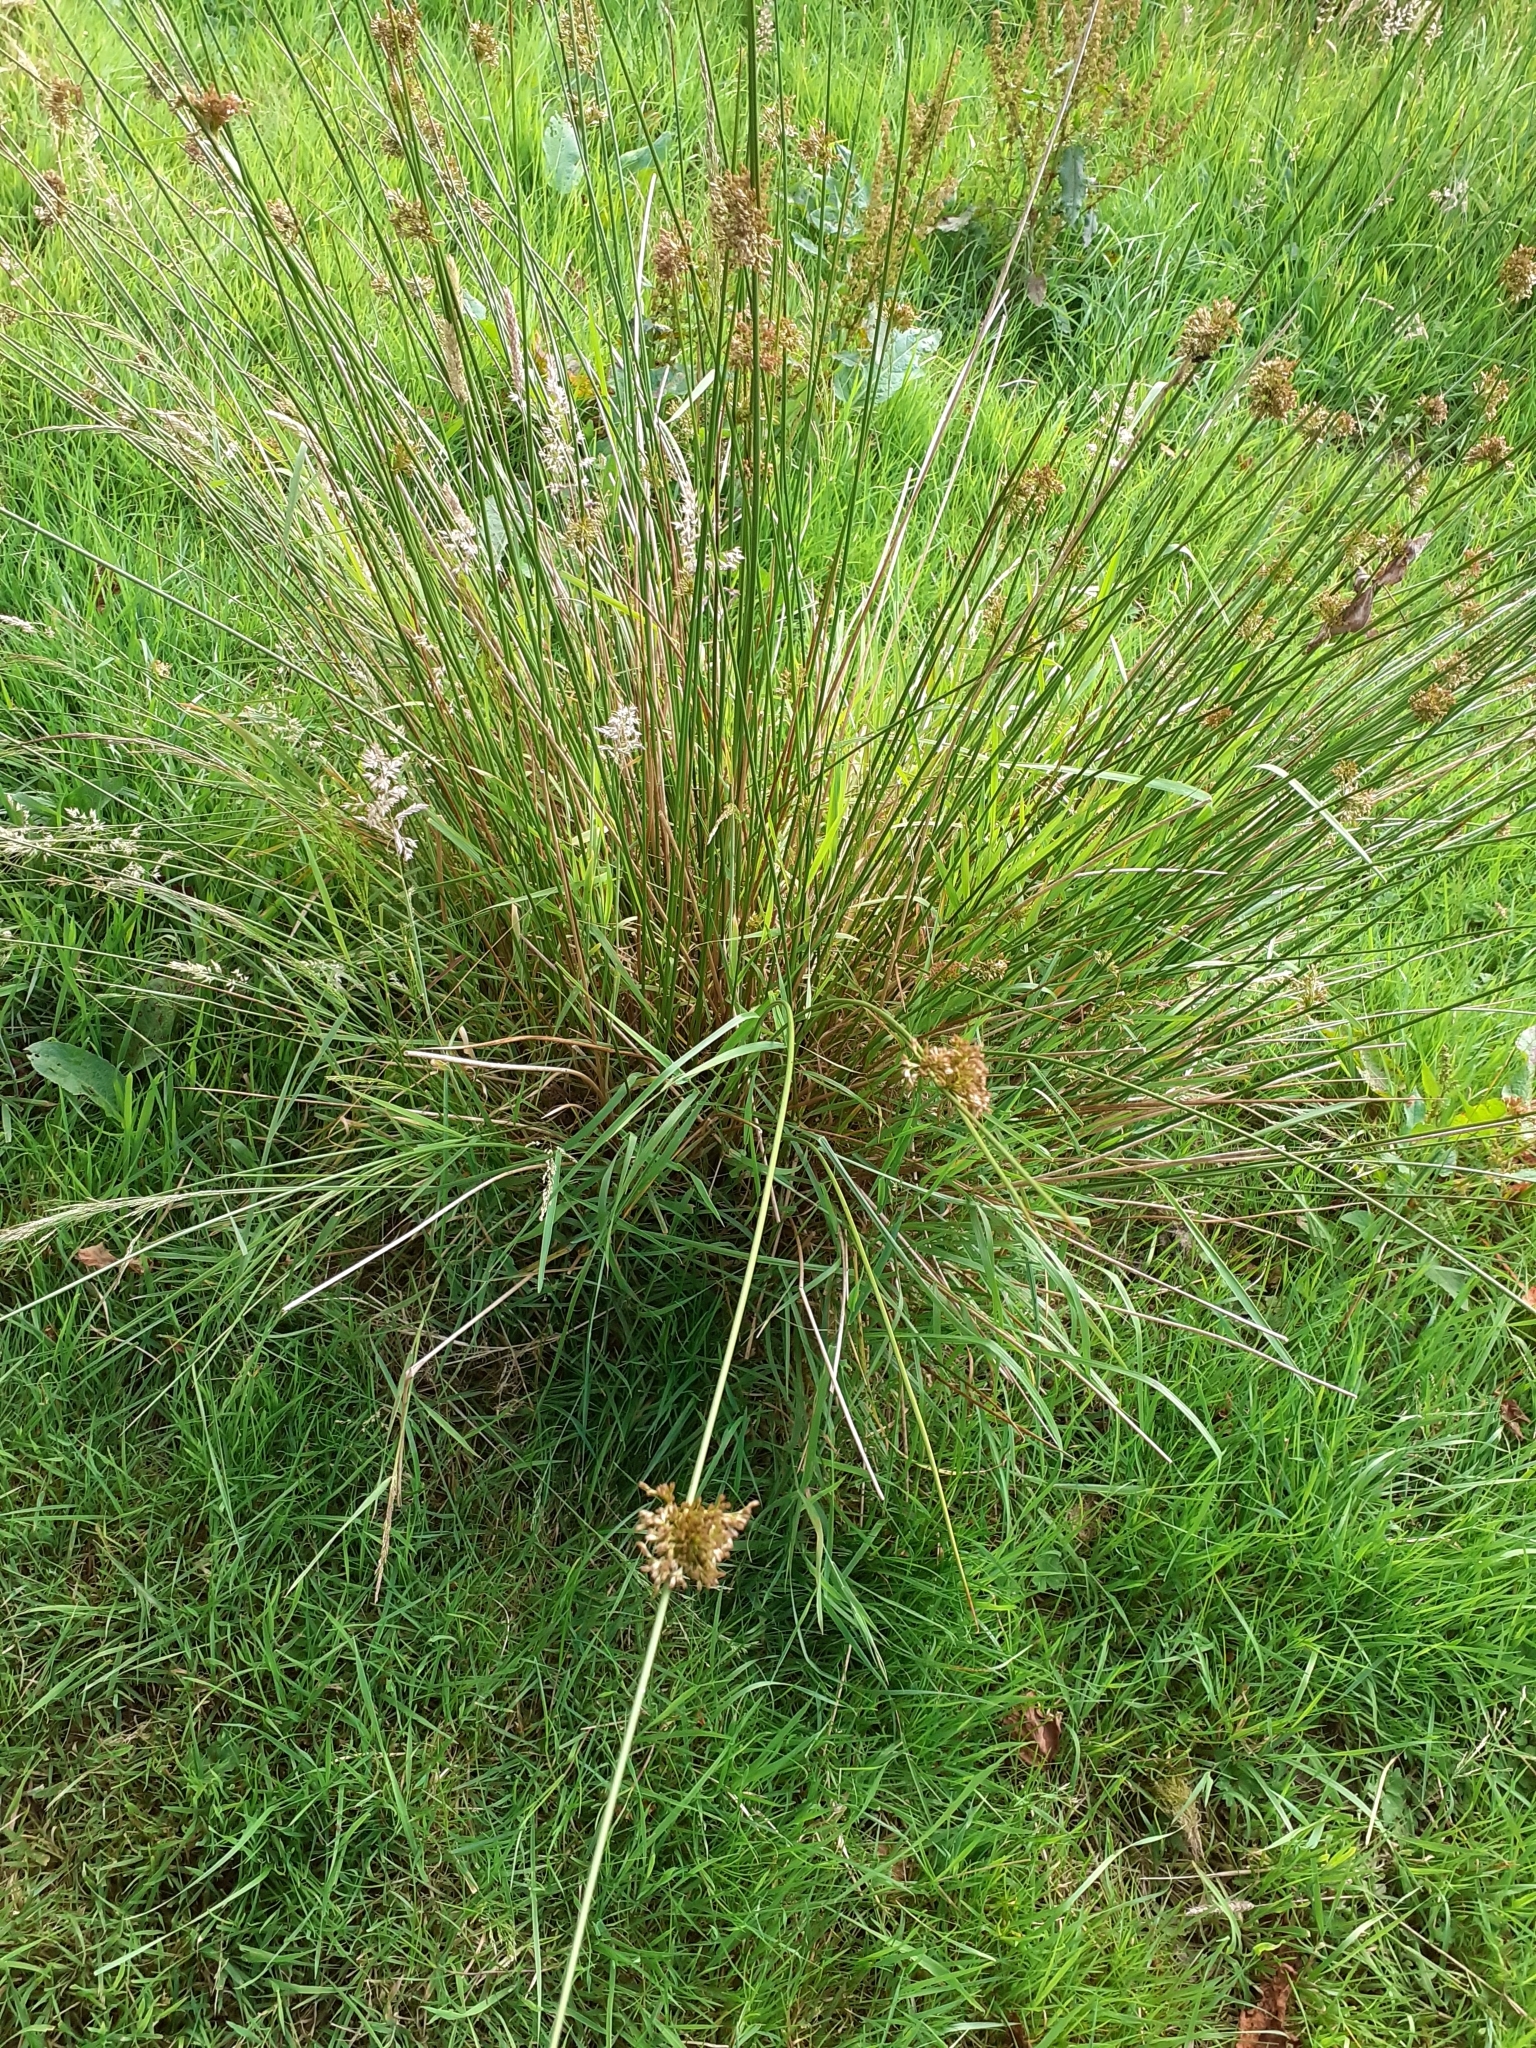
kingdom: Plantae
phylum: Tracheophyta
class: Liliopsida
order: Poales
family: Juncaceae
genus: Juncus
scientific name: Juncus effusus
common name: Soft rush
